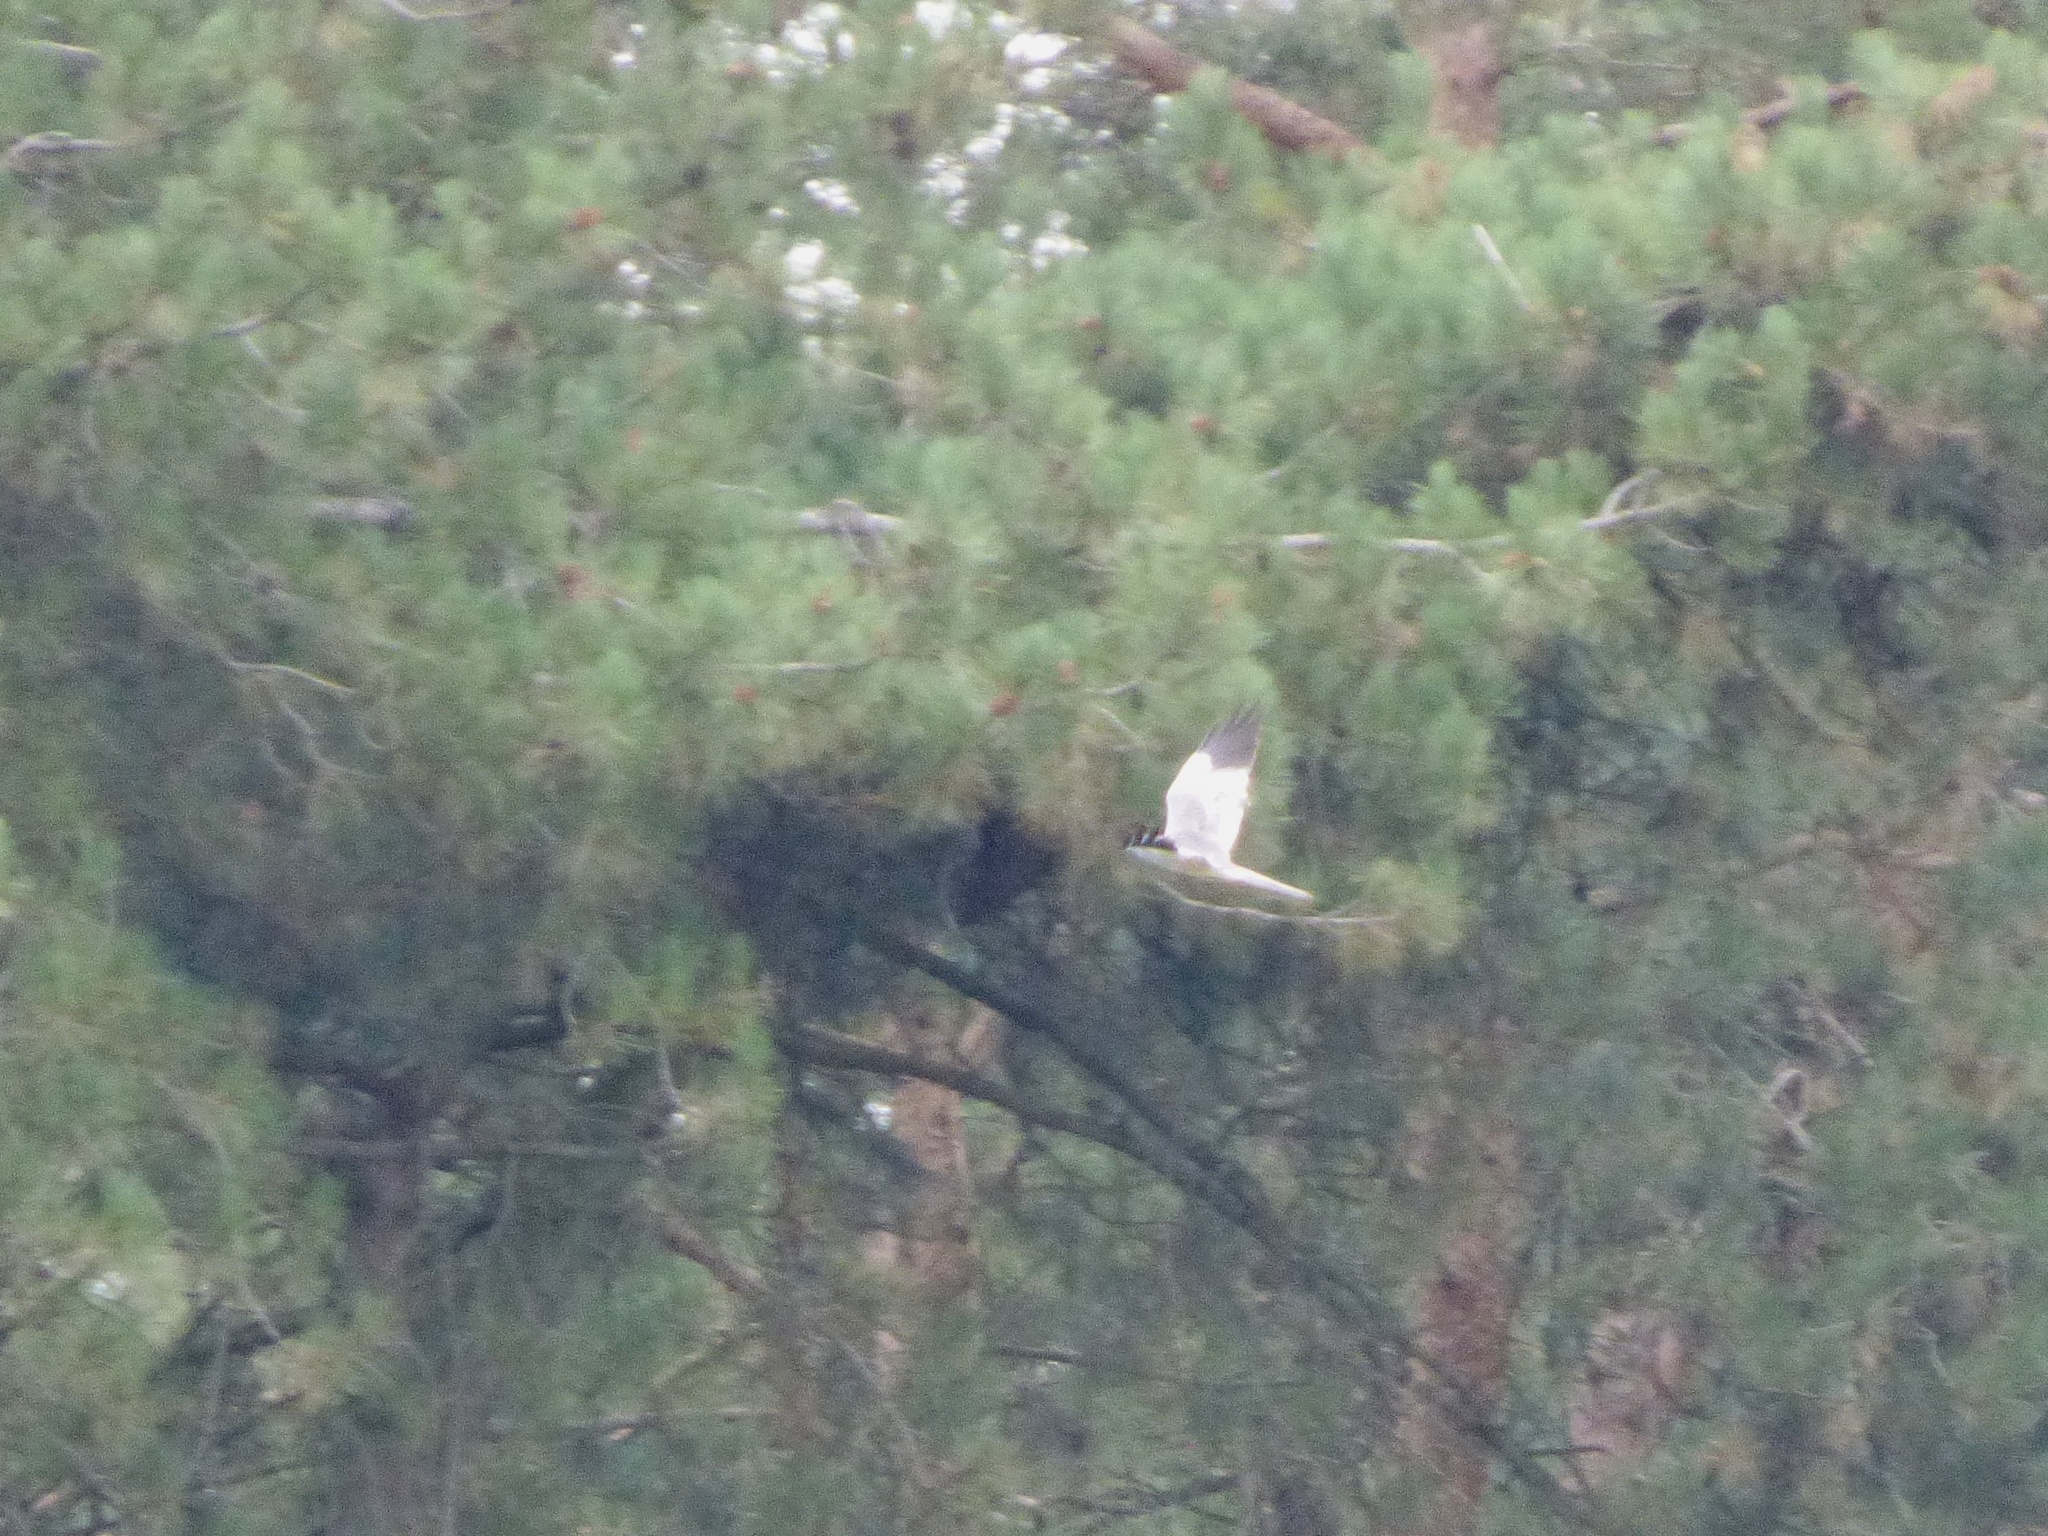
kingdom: Animalia
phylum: Chordata
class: Aves
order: Accipitriformes
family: Accipitridae
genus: Circus
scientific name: Circus cyaneus
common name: Hen harrier
